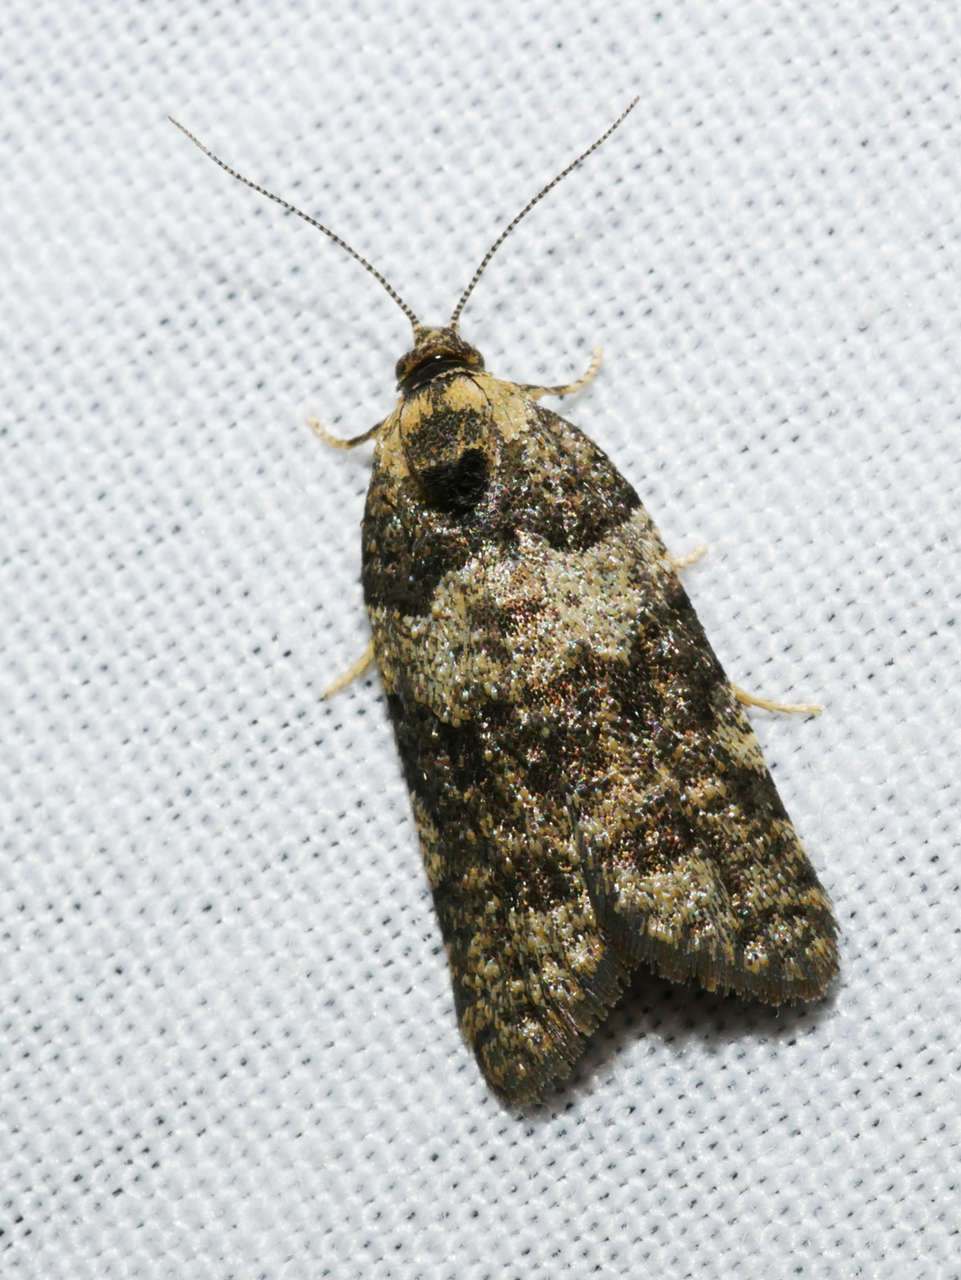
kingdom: Animalia
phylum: Arthropoda
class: Insecta
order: Lepidoptera
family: Tortricidae
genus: Dichelia
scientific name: Dichelia cosmopis
